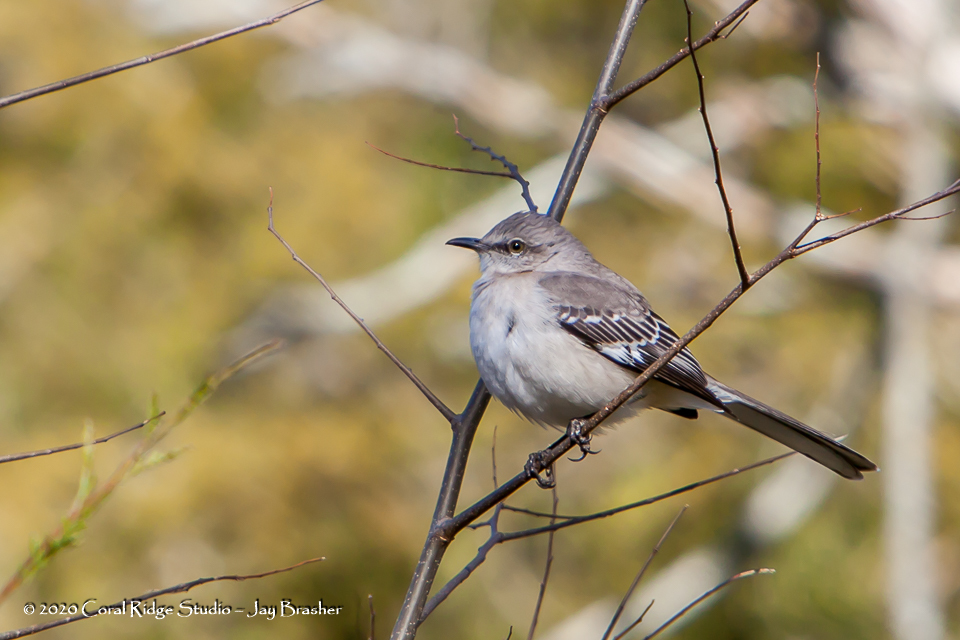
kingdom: Animalia
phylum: Chordata
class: Aves
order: Passeriformes
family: Mimidae
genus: Mimus
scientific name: Mimus polyglottos
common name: Northern mockingbird
